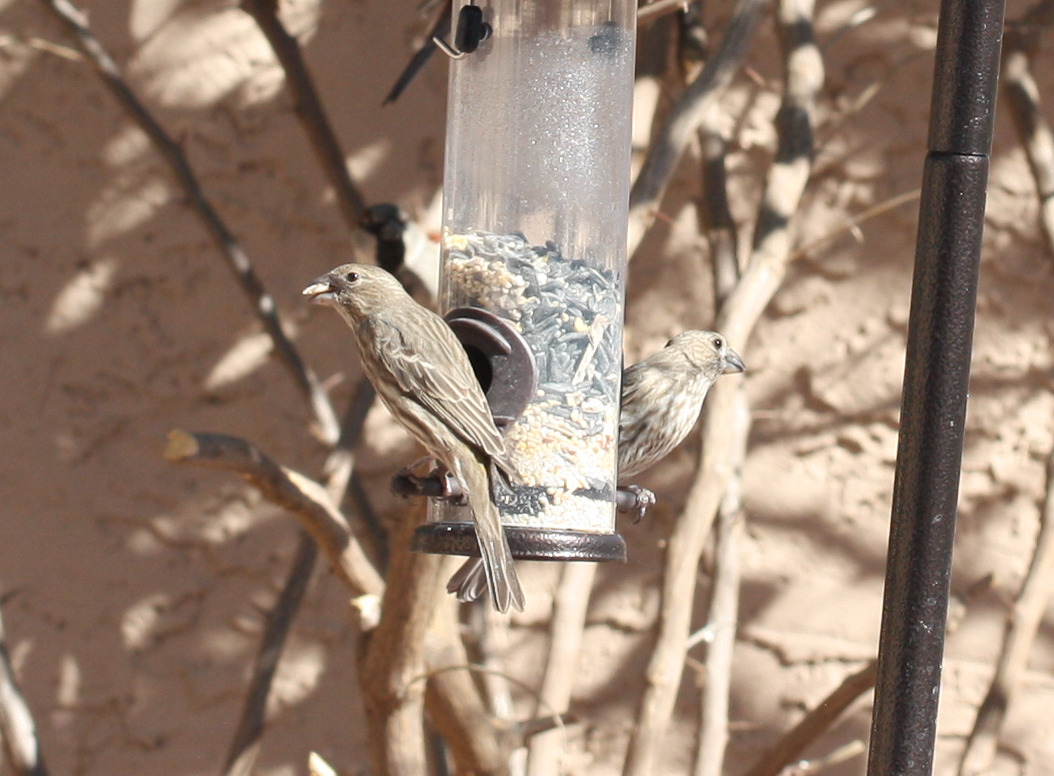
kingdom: Animalia
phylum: Chordata
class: Aves
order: Passeriformes
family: Fringillidae
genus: Haemorhous
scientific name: Haemorhous mexicanus
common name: House finch
